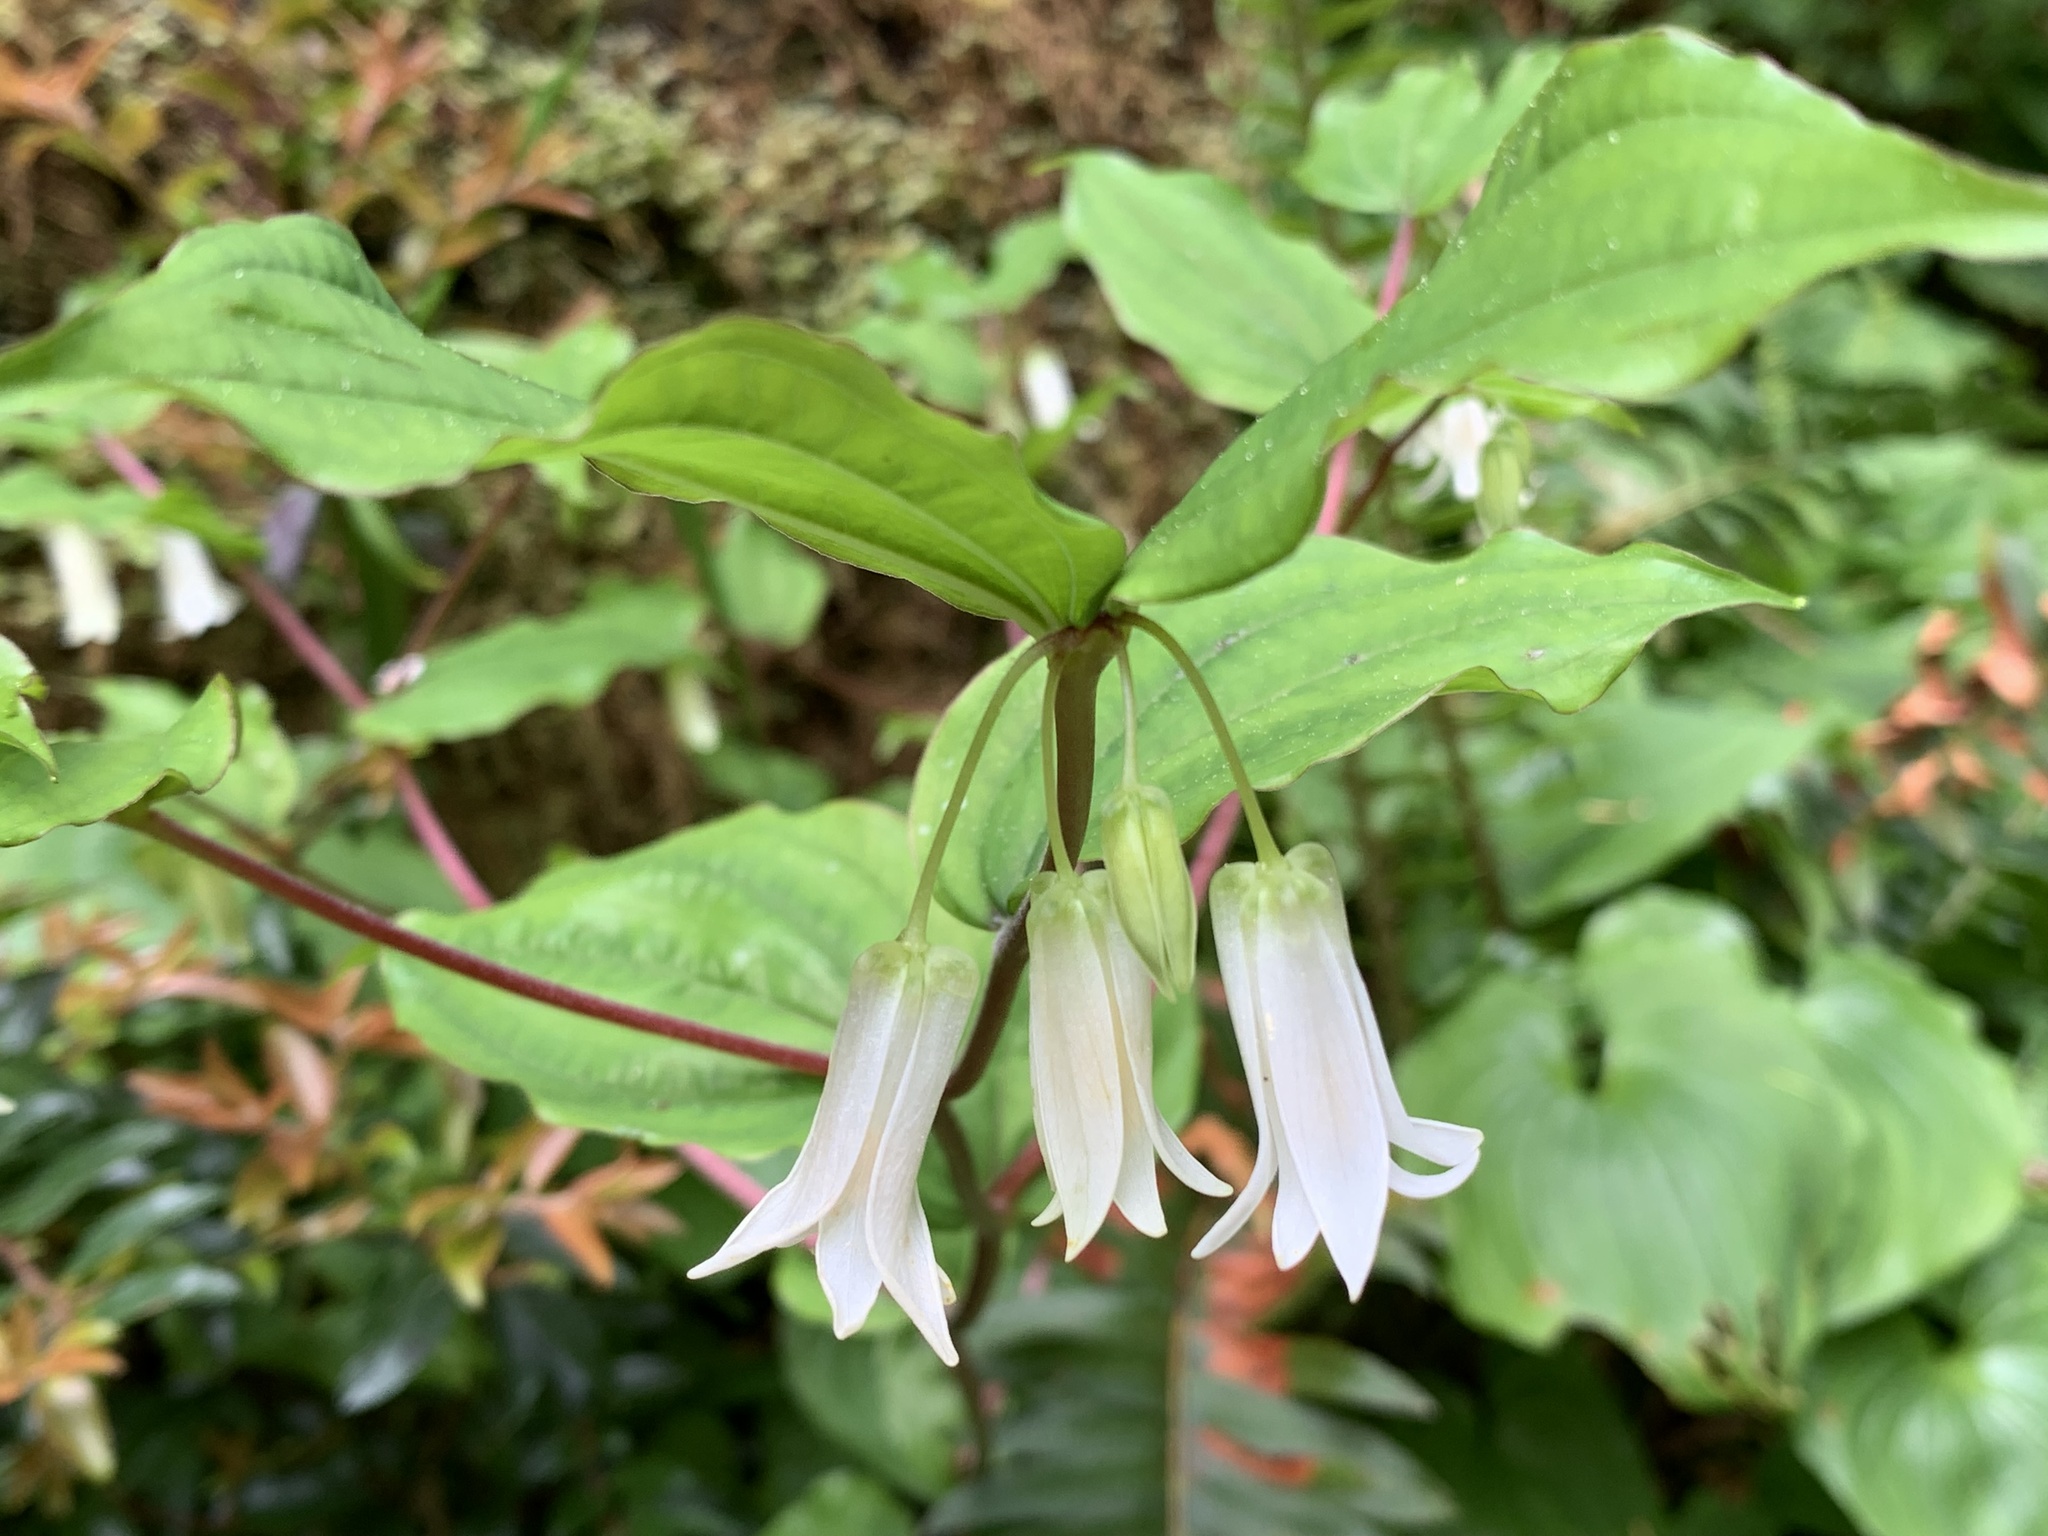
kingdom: Plantae
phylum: Tracheophyta
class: Liliopsida
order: Liliales
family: Liliaceae
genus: Prosartes
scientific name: Prosartes smithii
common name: Fairy-lantern
